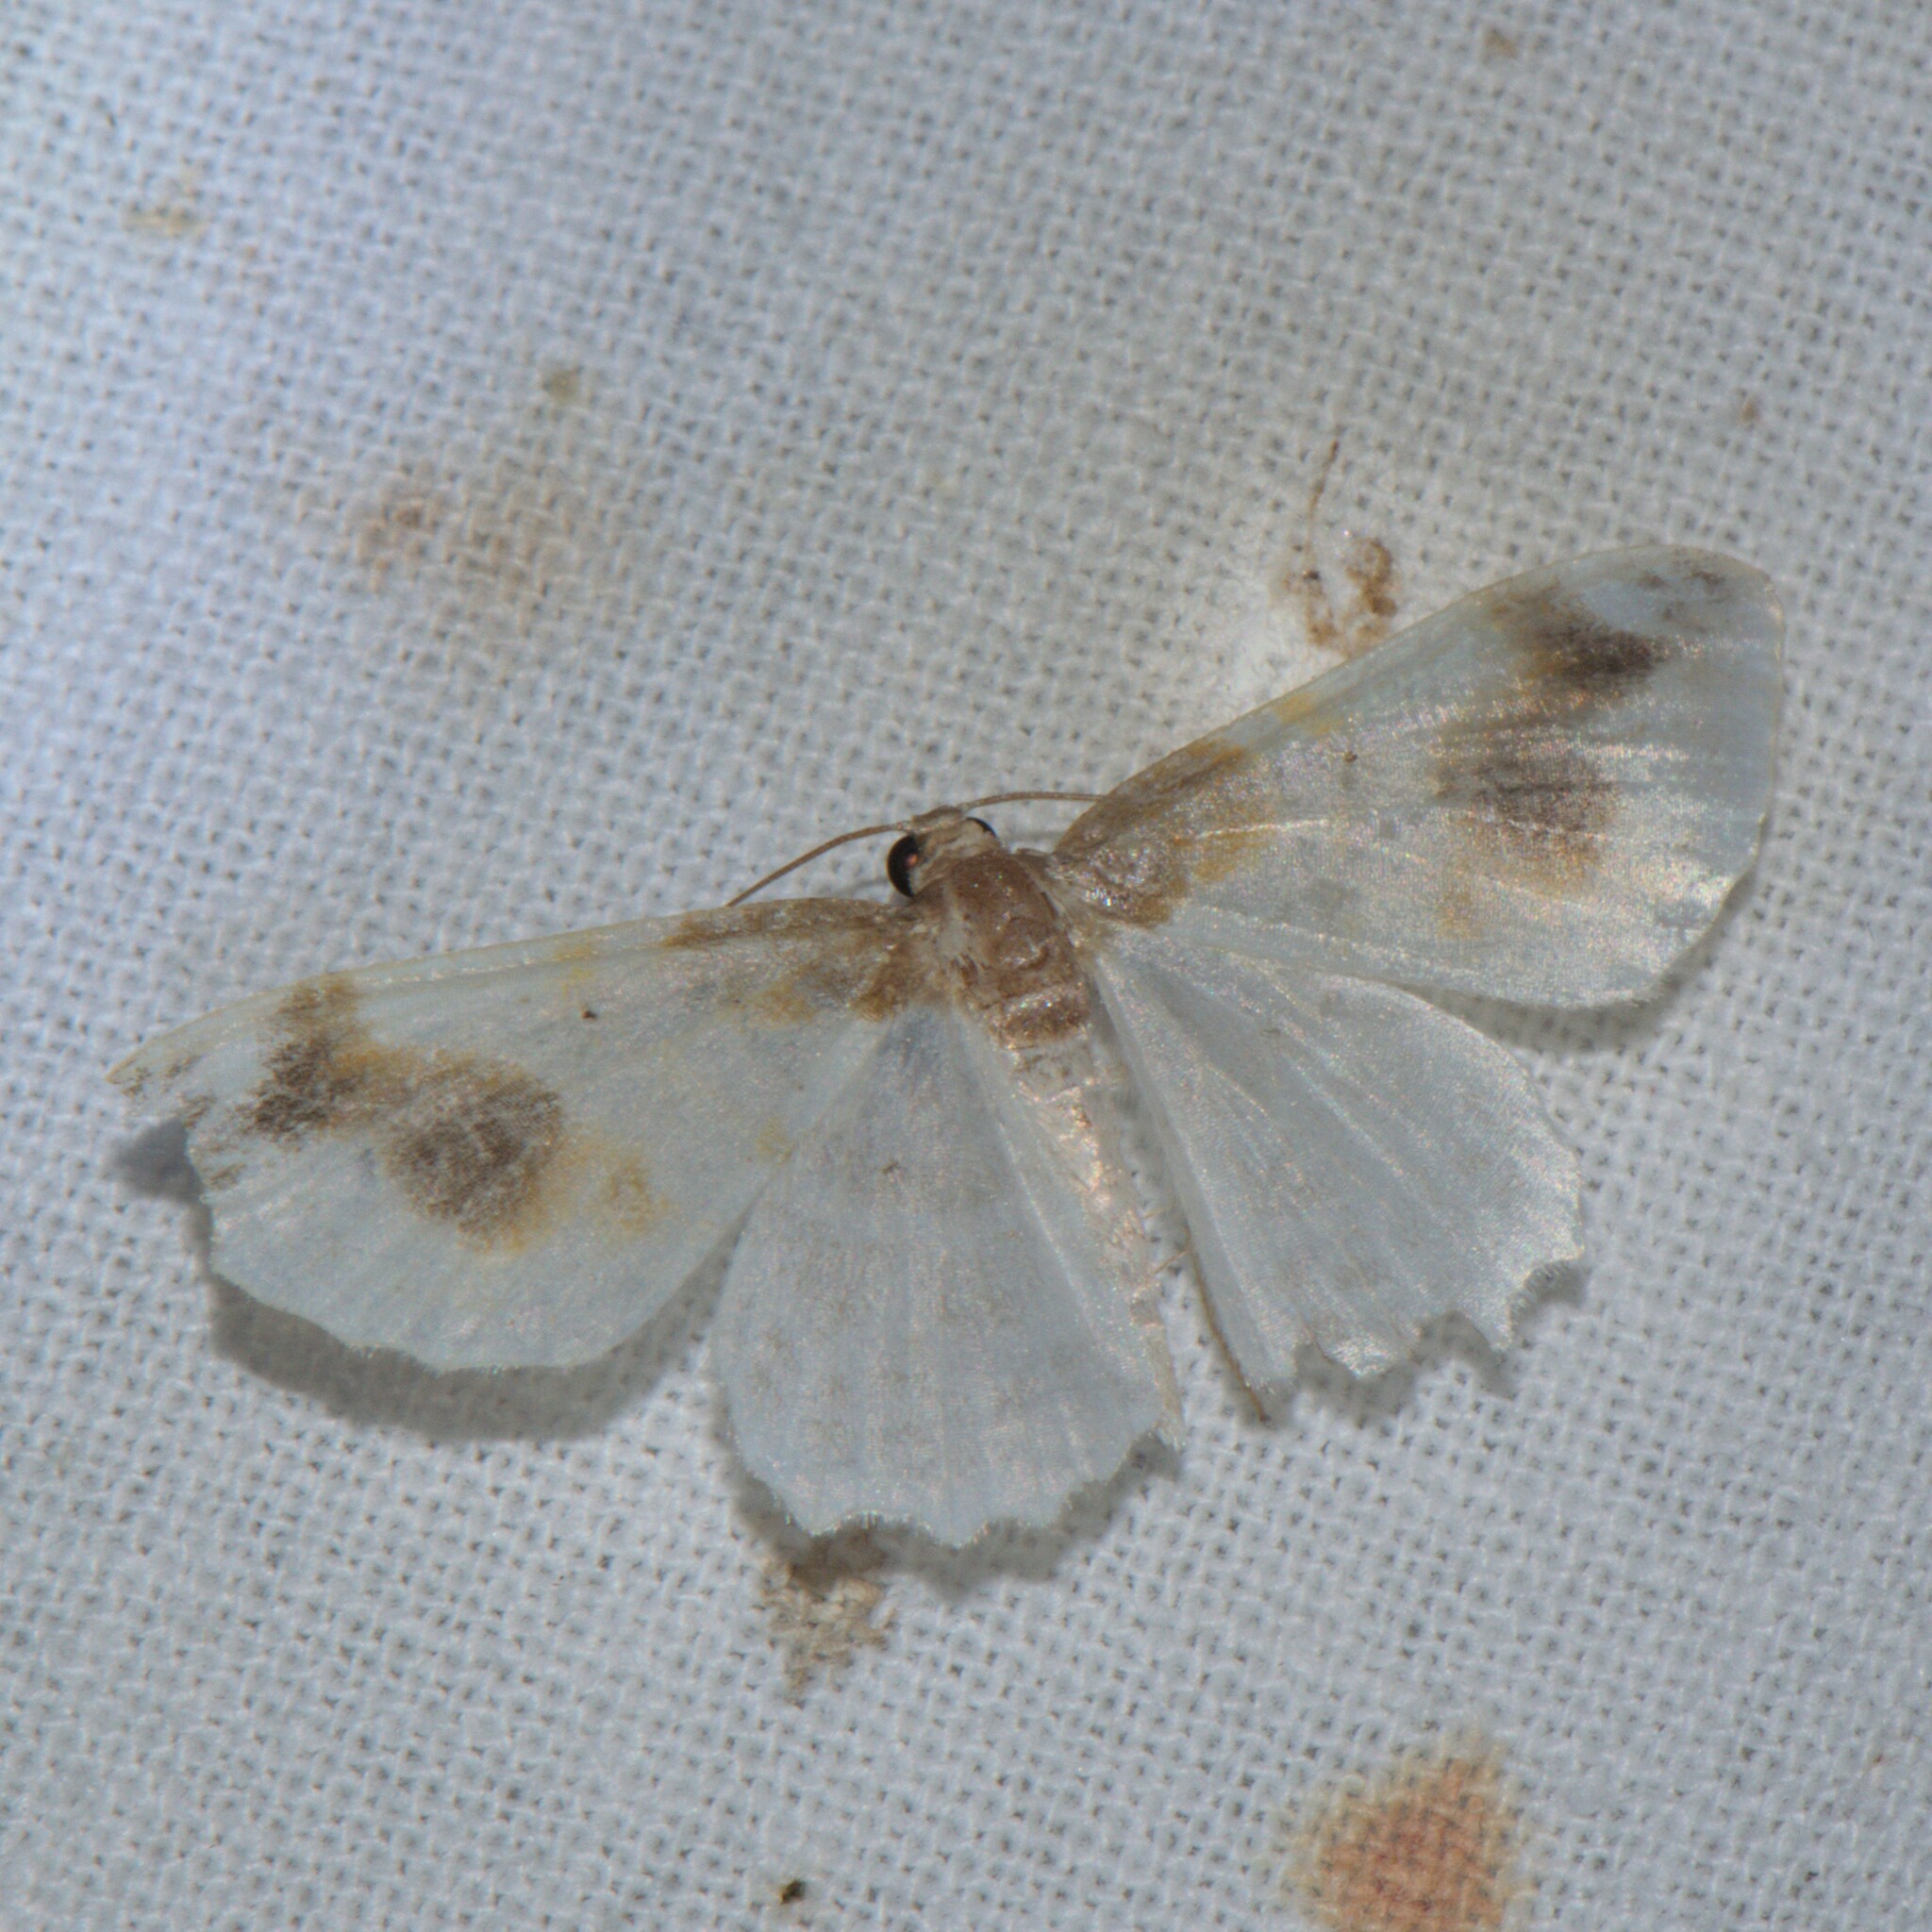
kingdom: Animalia
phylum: Arthropoda
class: Insecta
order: Lepidoptera
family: Geometridae
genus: Agnibesa
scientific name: Agnibesa pictaria
